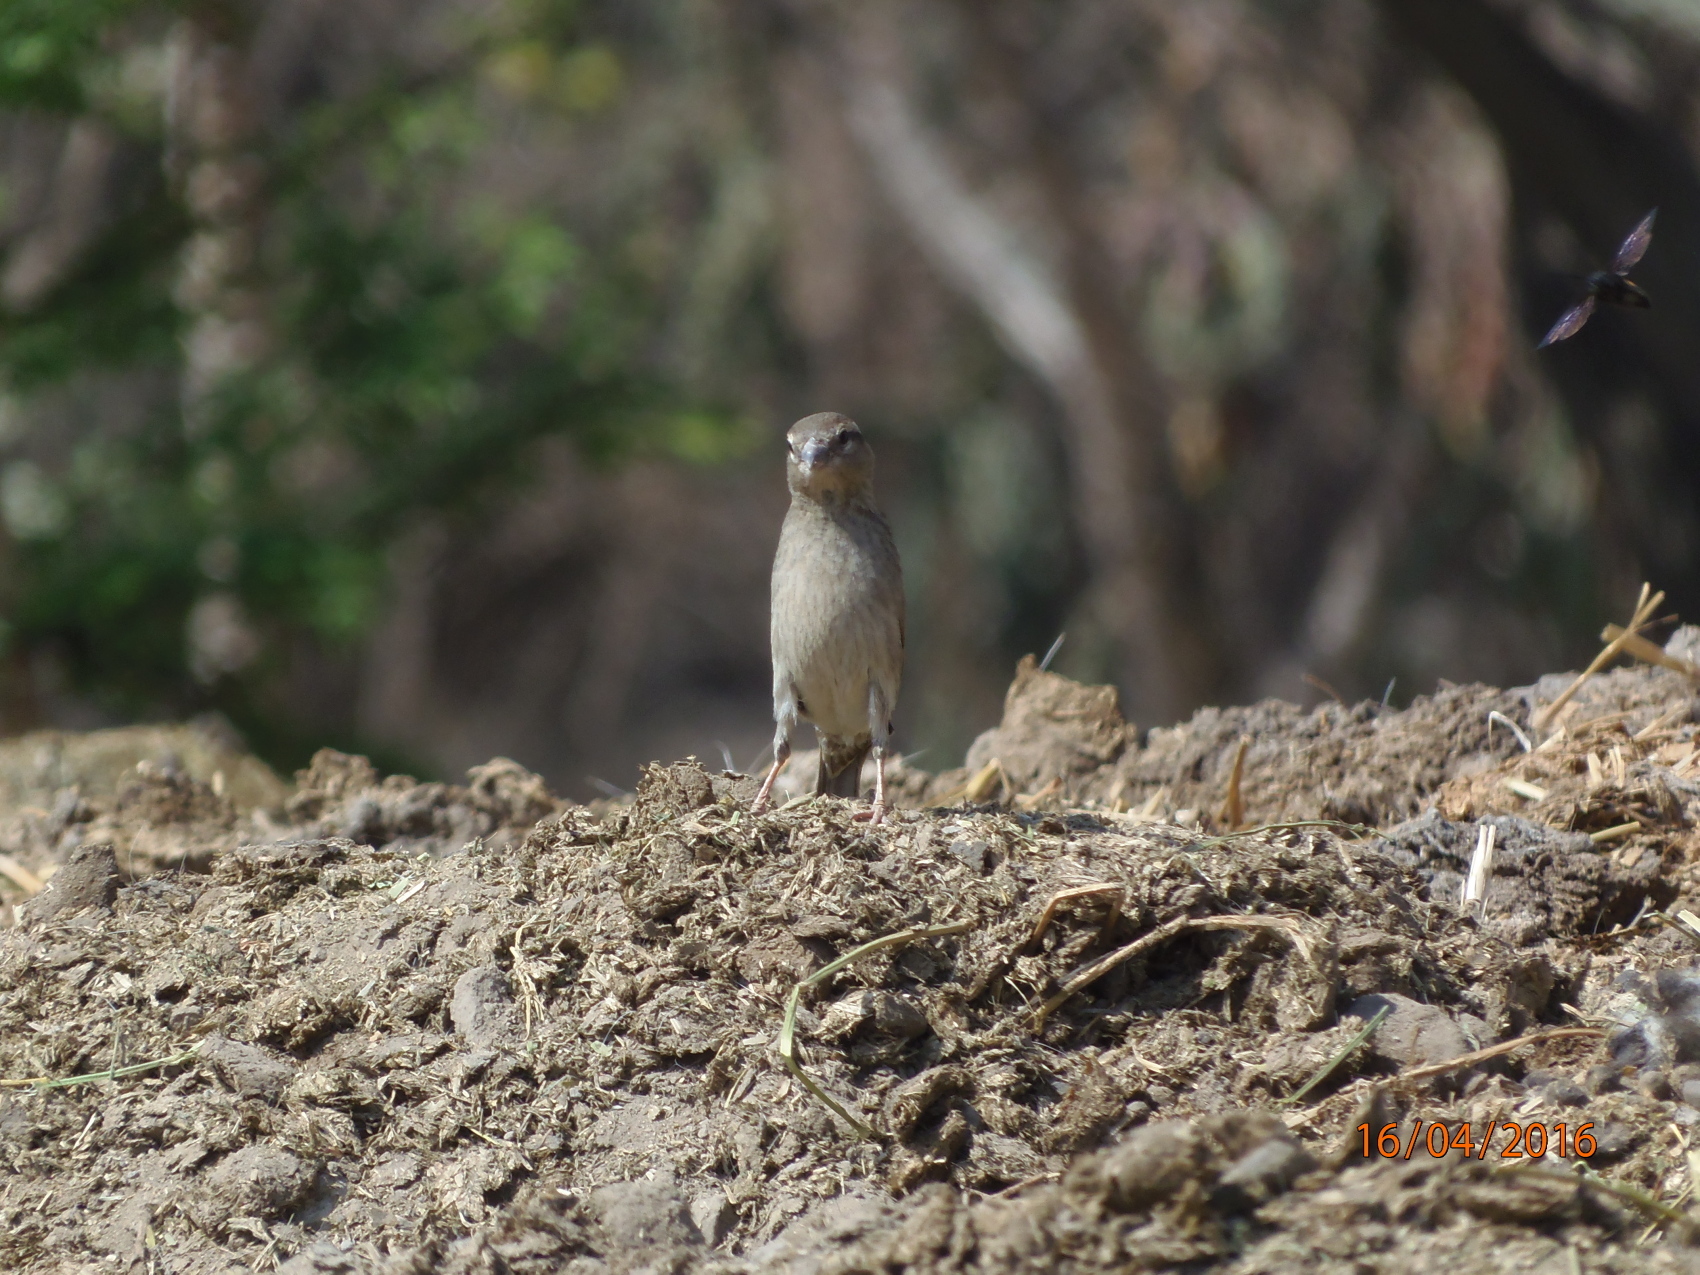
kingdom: Animalia
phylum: Chordata
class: Aves
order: Passeriformes
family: Passeridae
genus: Passer
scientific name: Passer domesticus
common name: House sparrow
